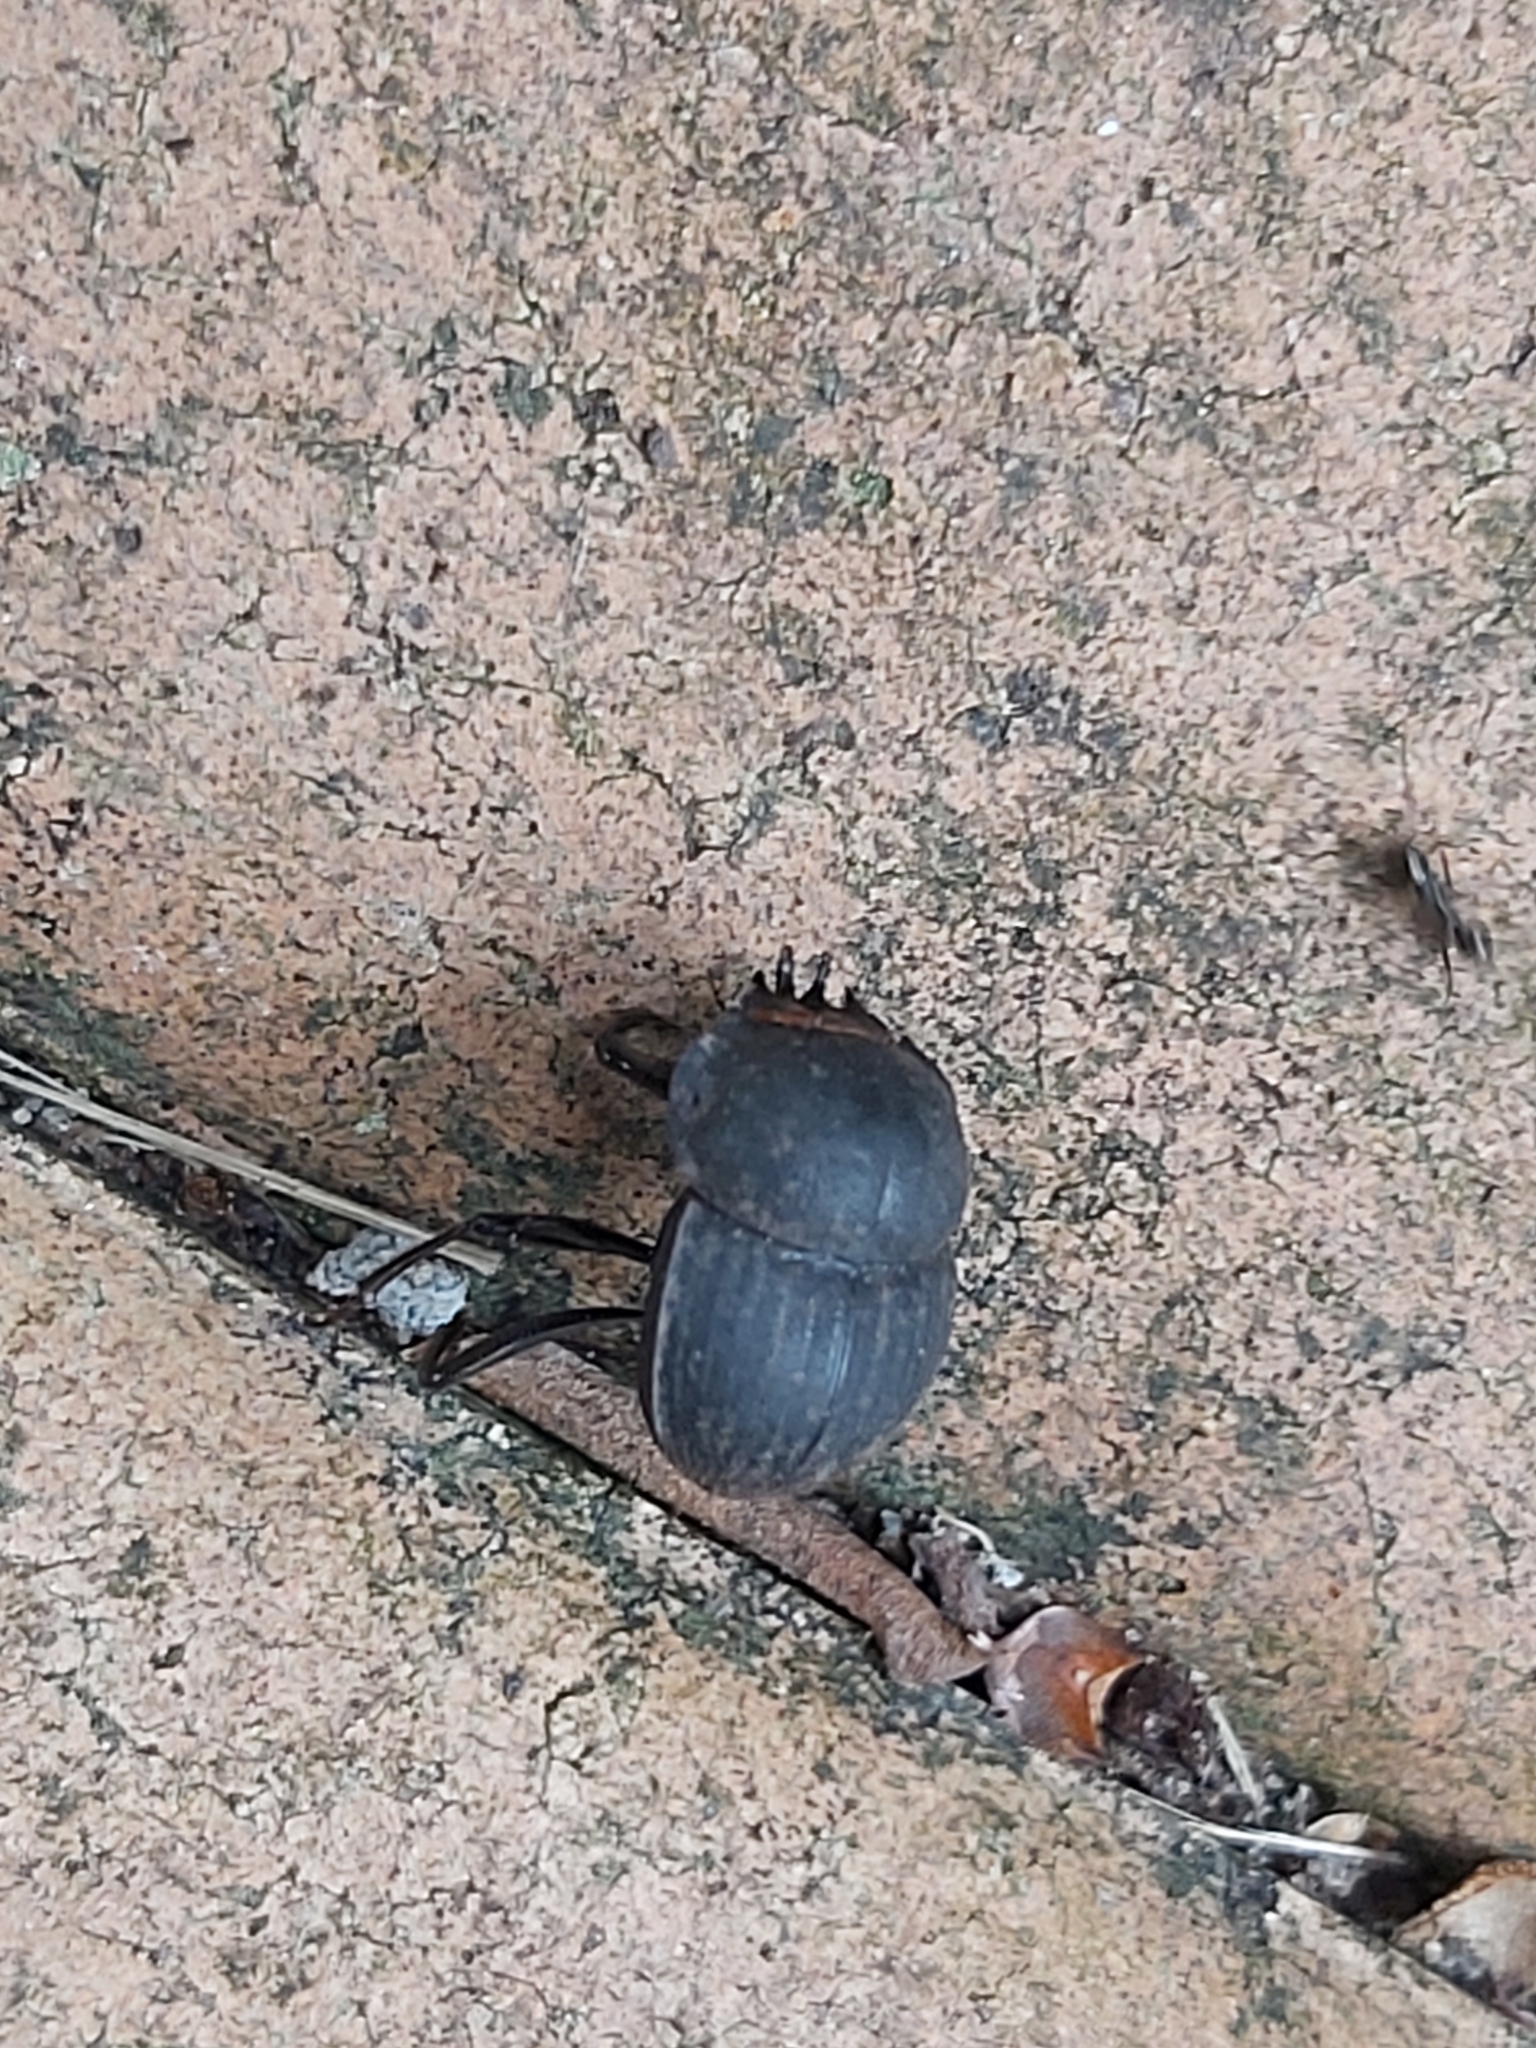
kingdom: Animalia
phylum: Arthropoda
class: Insecta
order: Coleoptera
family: Scarabaeidae
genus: Cephalodesmius
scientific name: Cephalodesmius armiger
